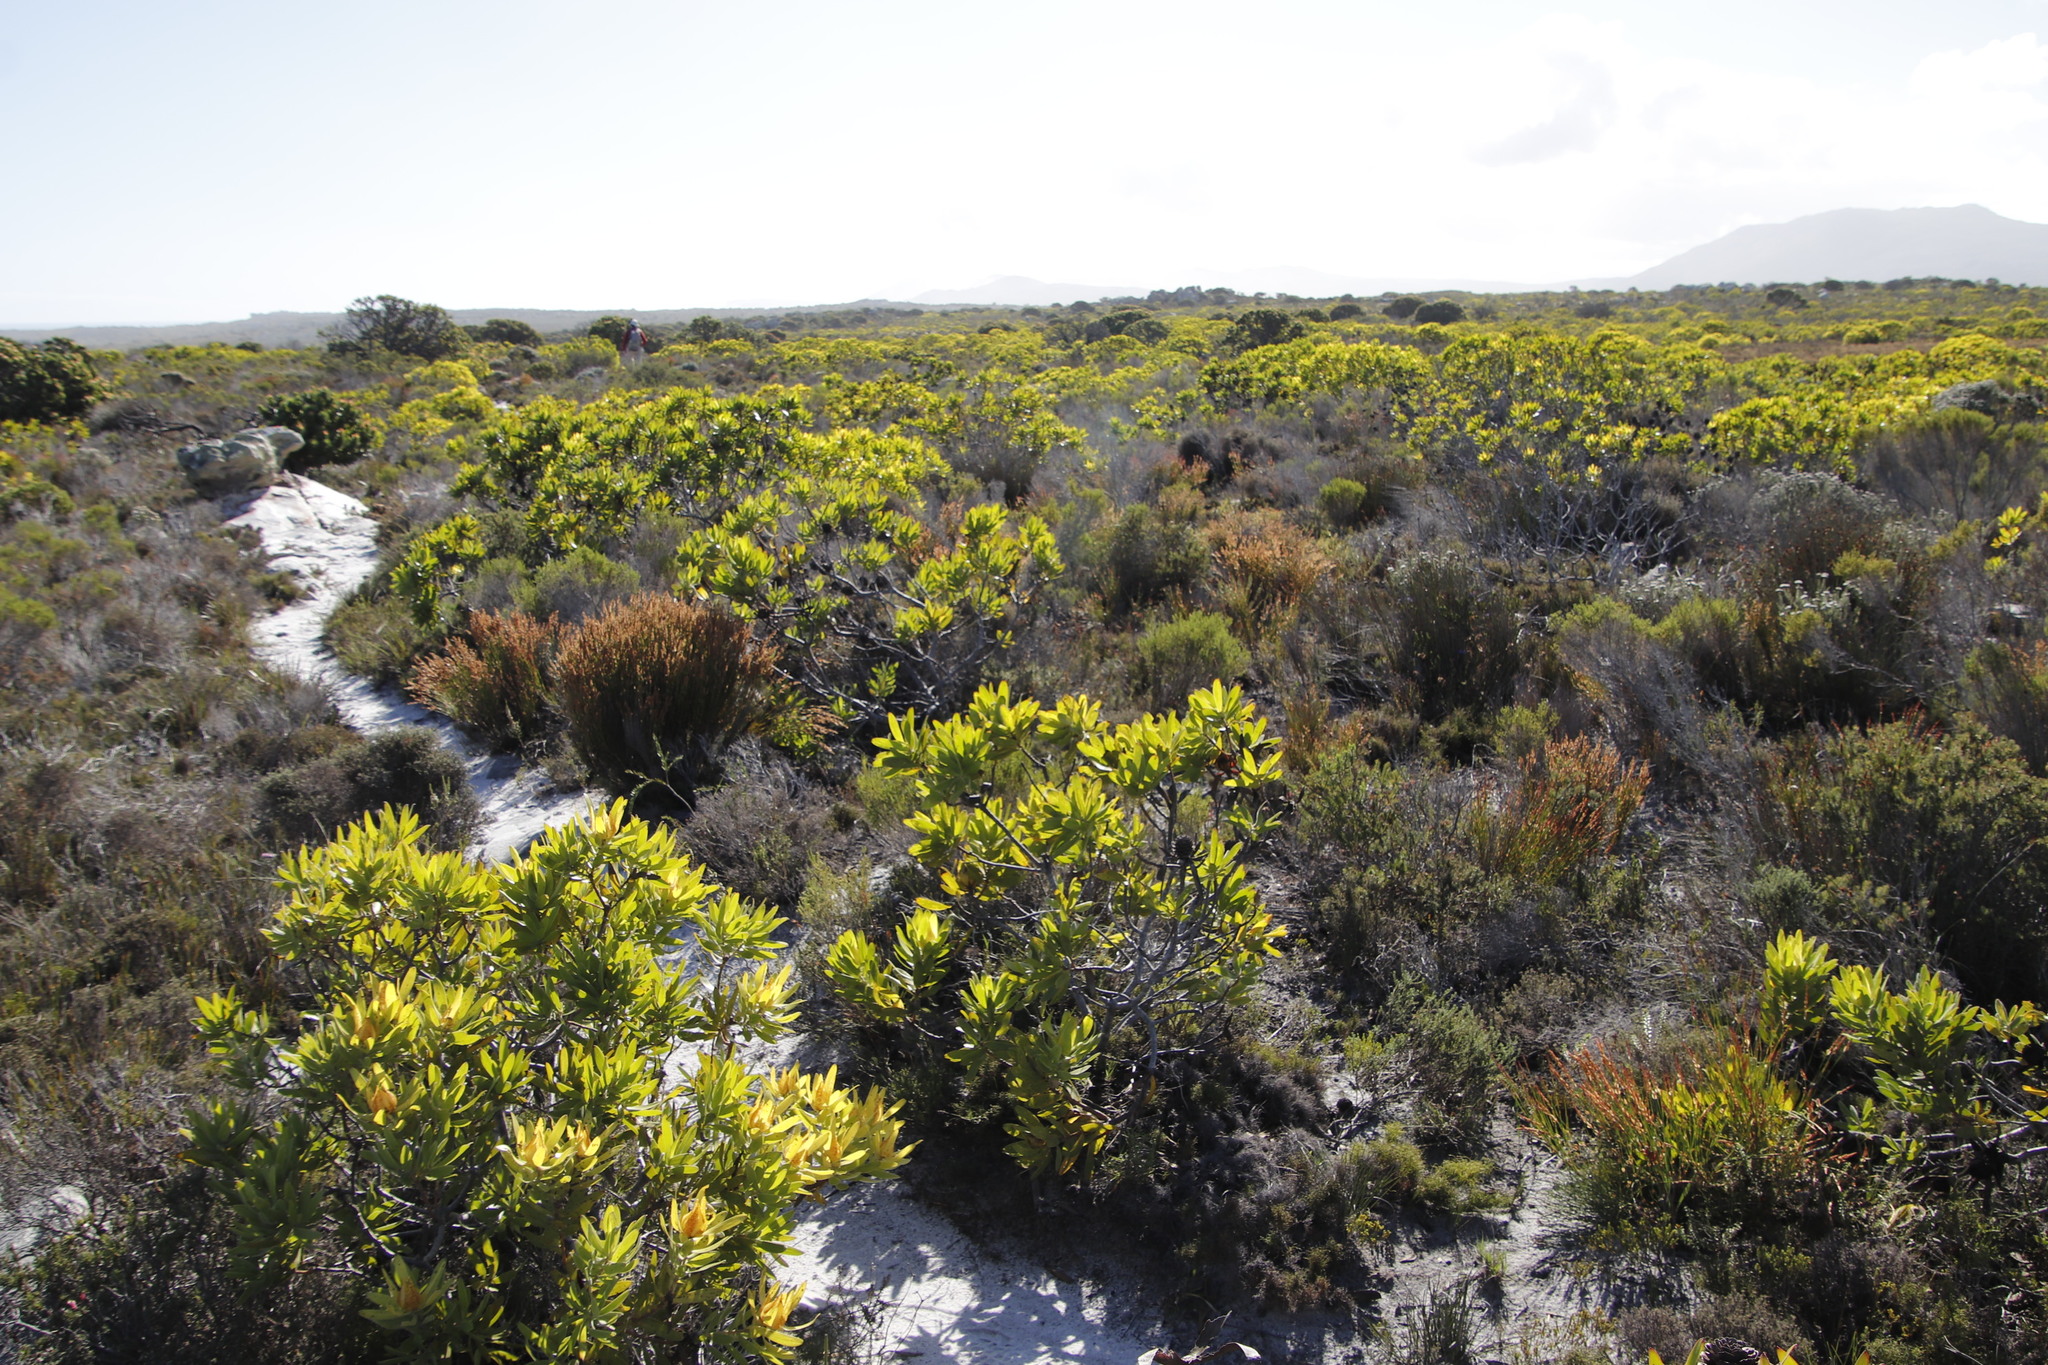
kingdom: Plantae
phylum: Tracheophyta
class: Magnoliopsida
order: Proteales
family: Proteaceae
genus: Leucadendron
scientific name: Leucadendron laureolum
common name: Golden sunshinebush
